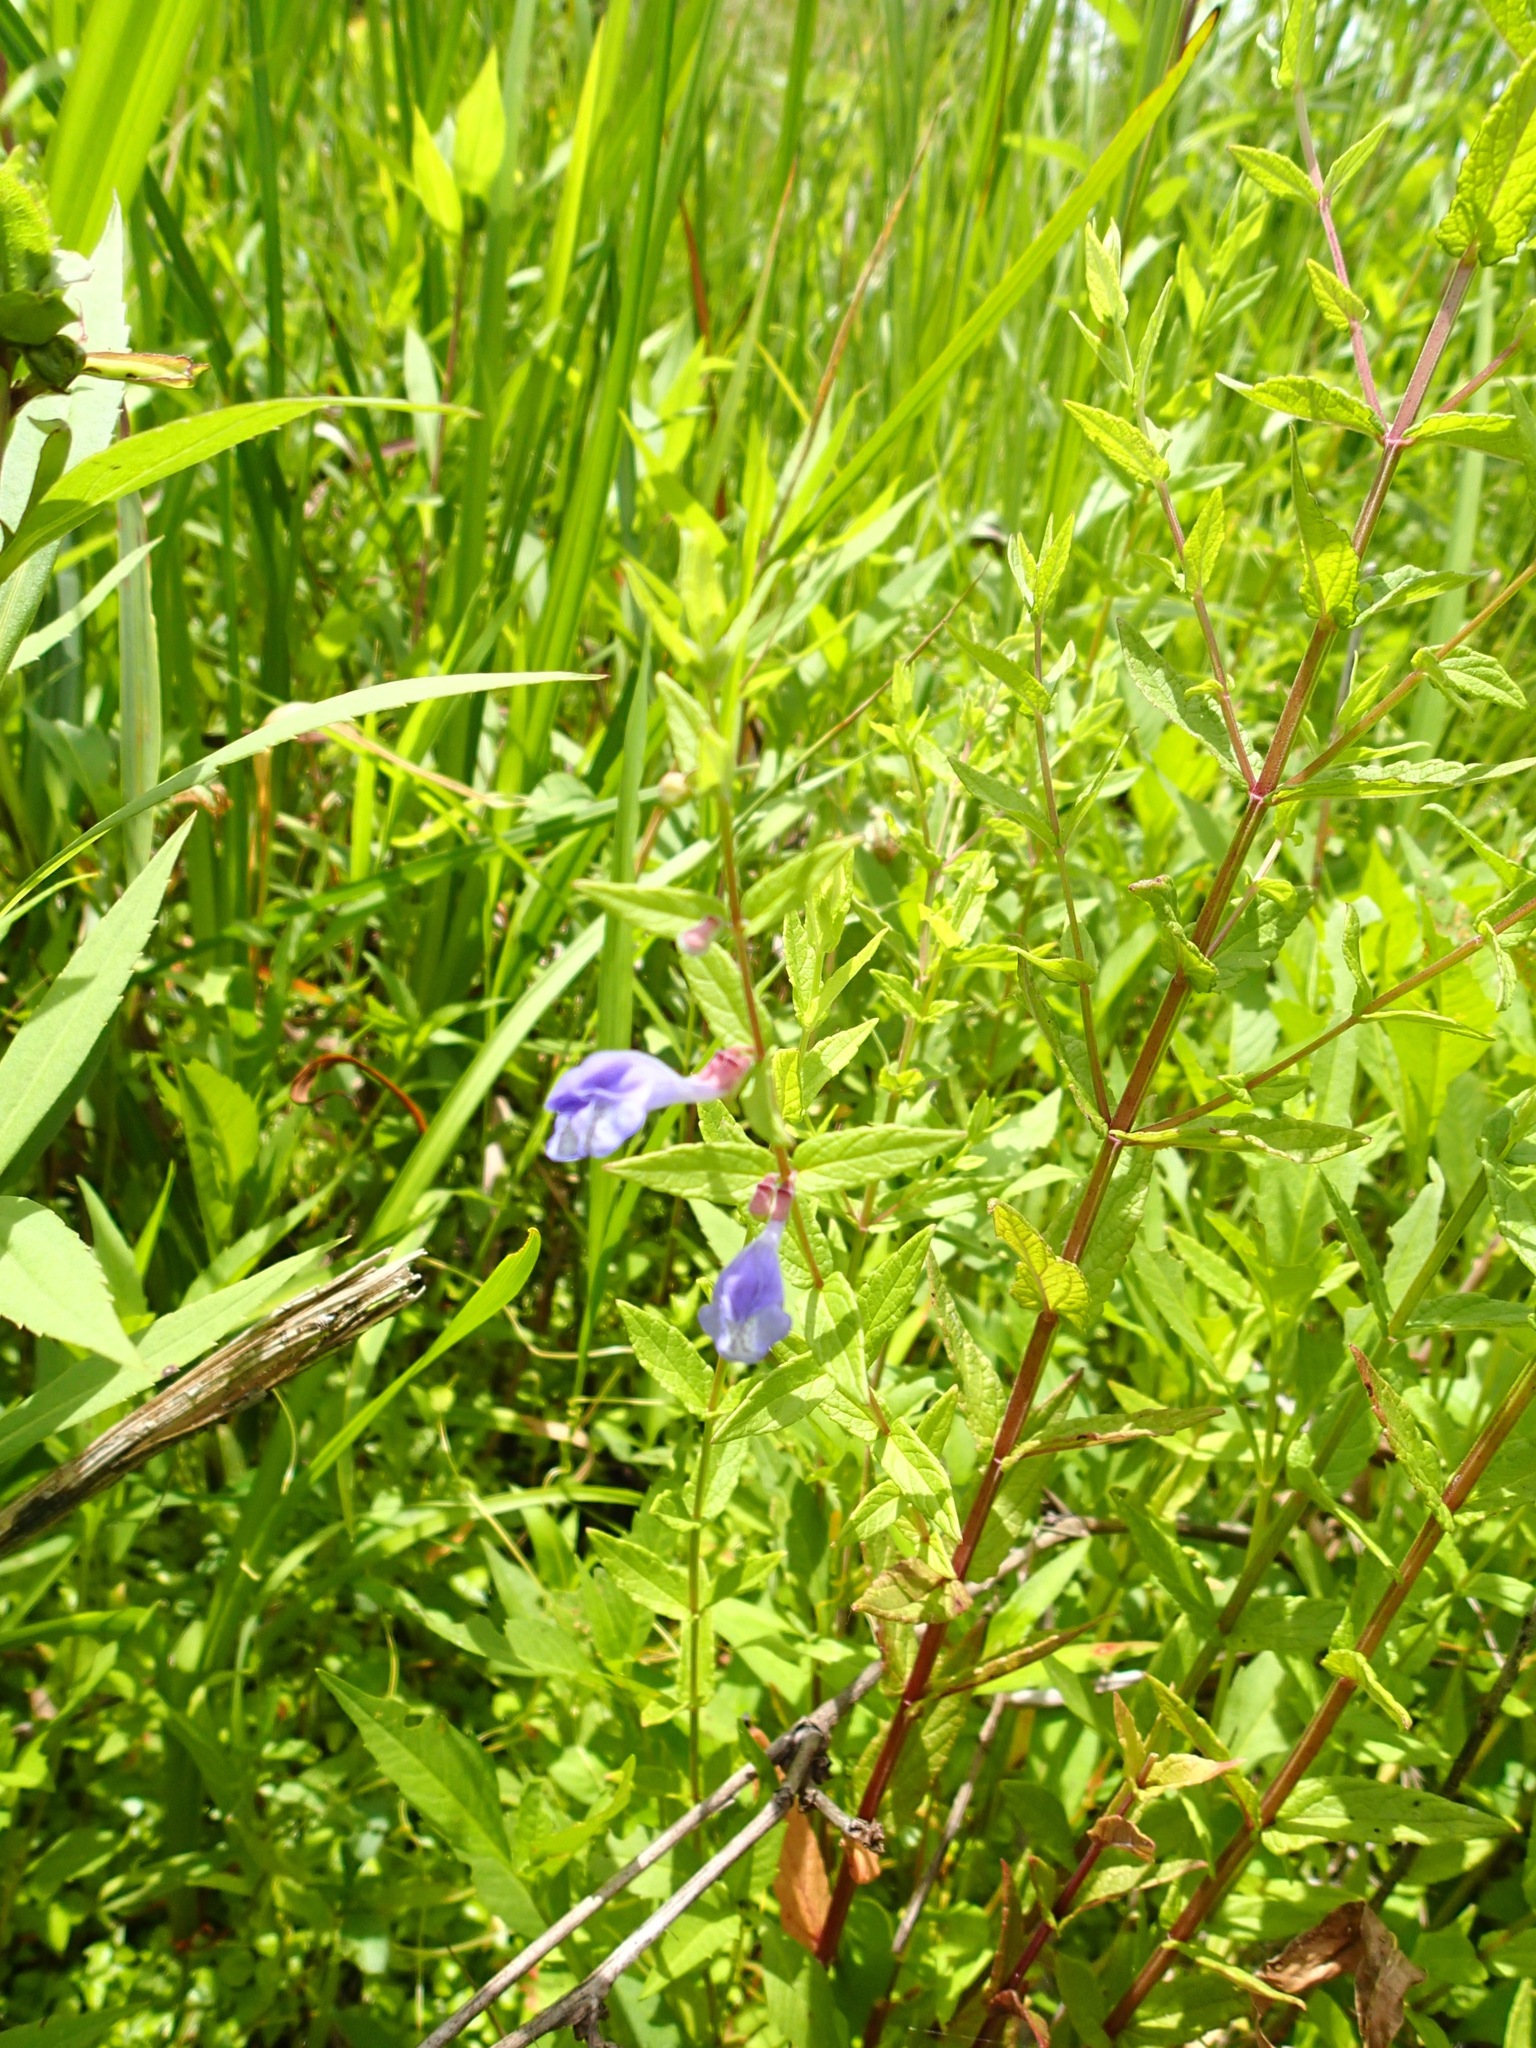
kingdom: Plantae
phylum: Tracheophyta
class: Magnoliopsida
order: Lamiales
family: Lamiaceae
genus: Scutellaria
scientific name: Scutellaria galericulata
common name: Skullcap
